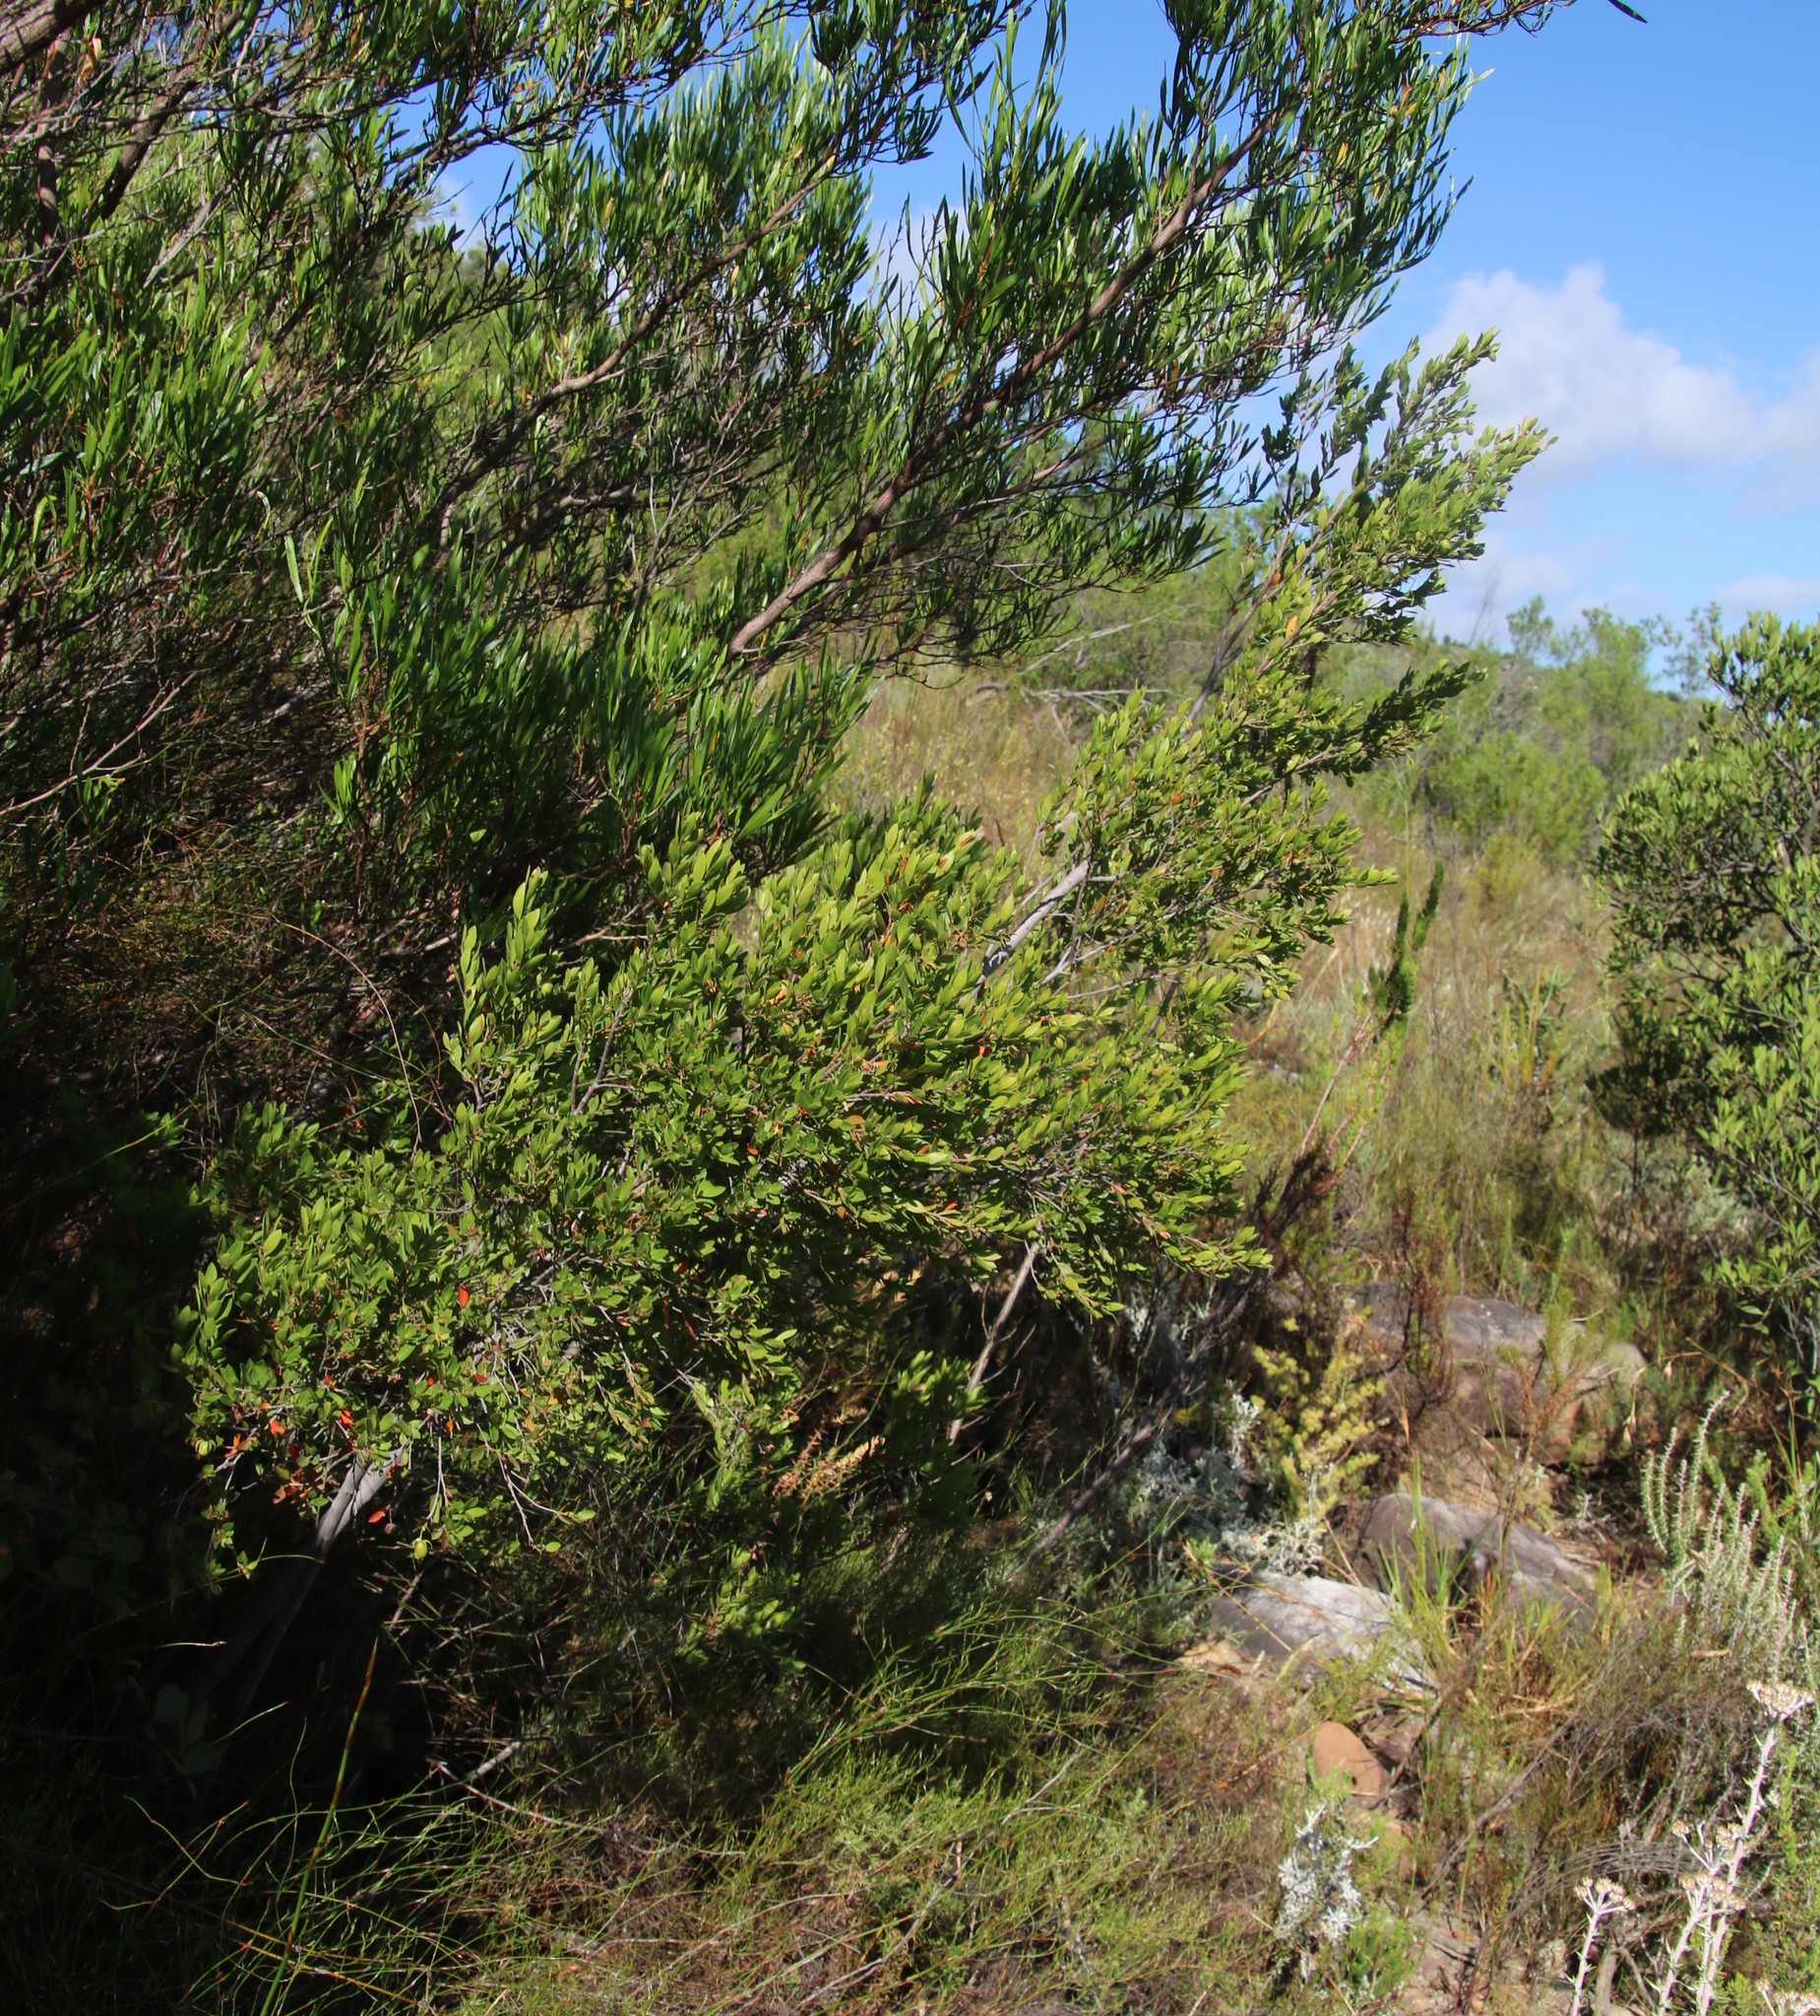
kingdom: Plantae
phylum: Tracheophyta
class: Magnoliopsida
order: Ericales
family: Ebenaceae
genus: Diospyros
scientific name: Diospyros glabra
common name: Fynbos star apple
